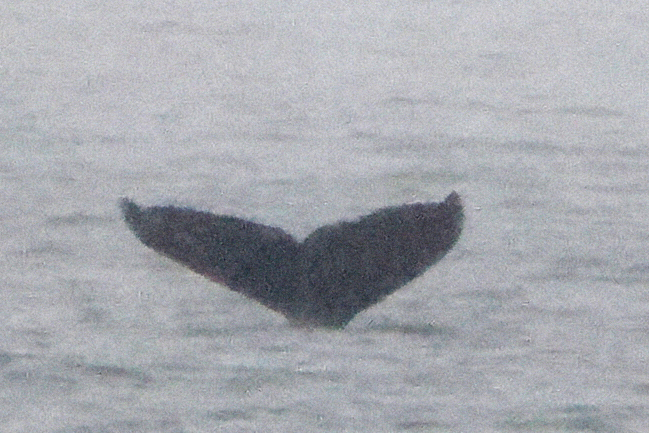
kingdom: Animalia
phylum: Chordata
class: Mammalia
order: Cetacea
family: Balaenopteridae
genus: Megaptera
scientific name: Megaptera novaeangliae
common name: Humpback whale
